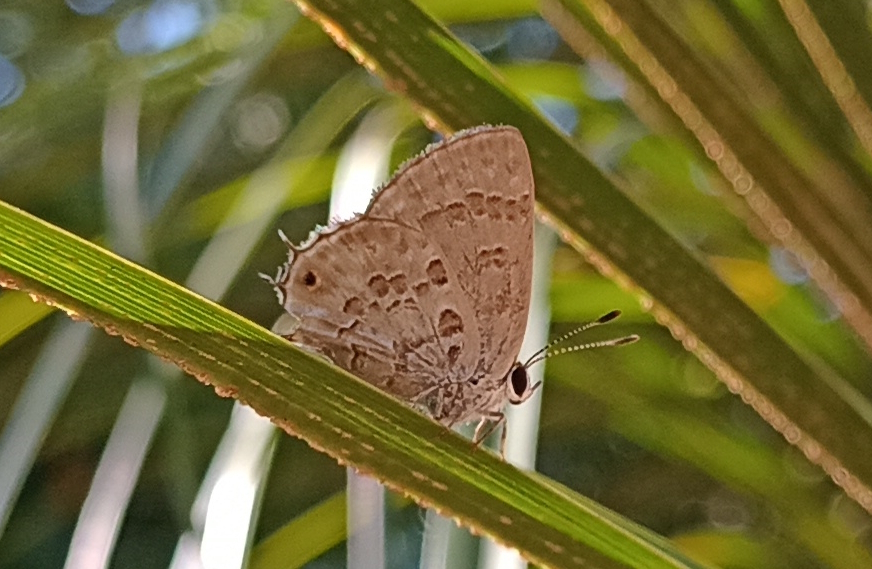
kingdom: Animalia
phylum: Arthropoda
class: Insecta
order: Lepidoptera
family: Lycaenidae
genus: Strymon
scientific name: Strymon lucena
